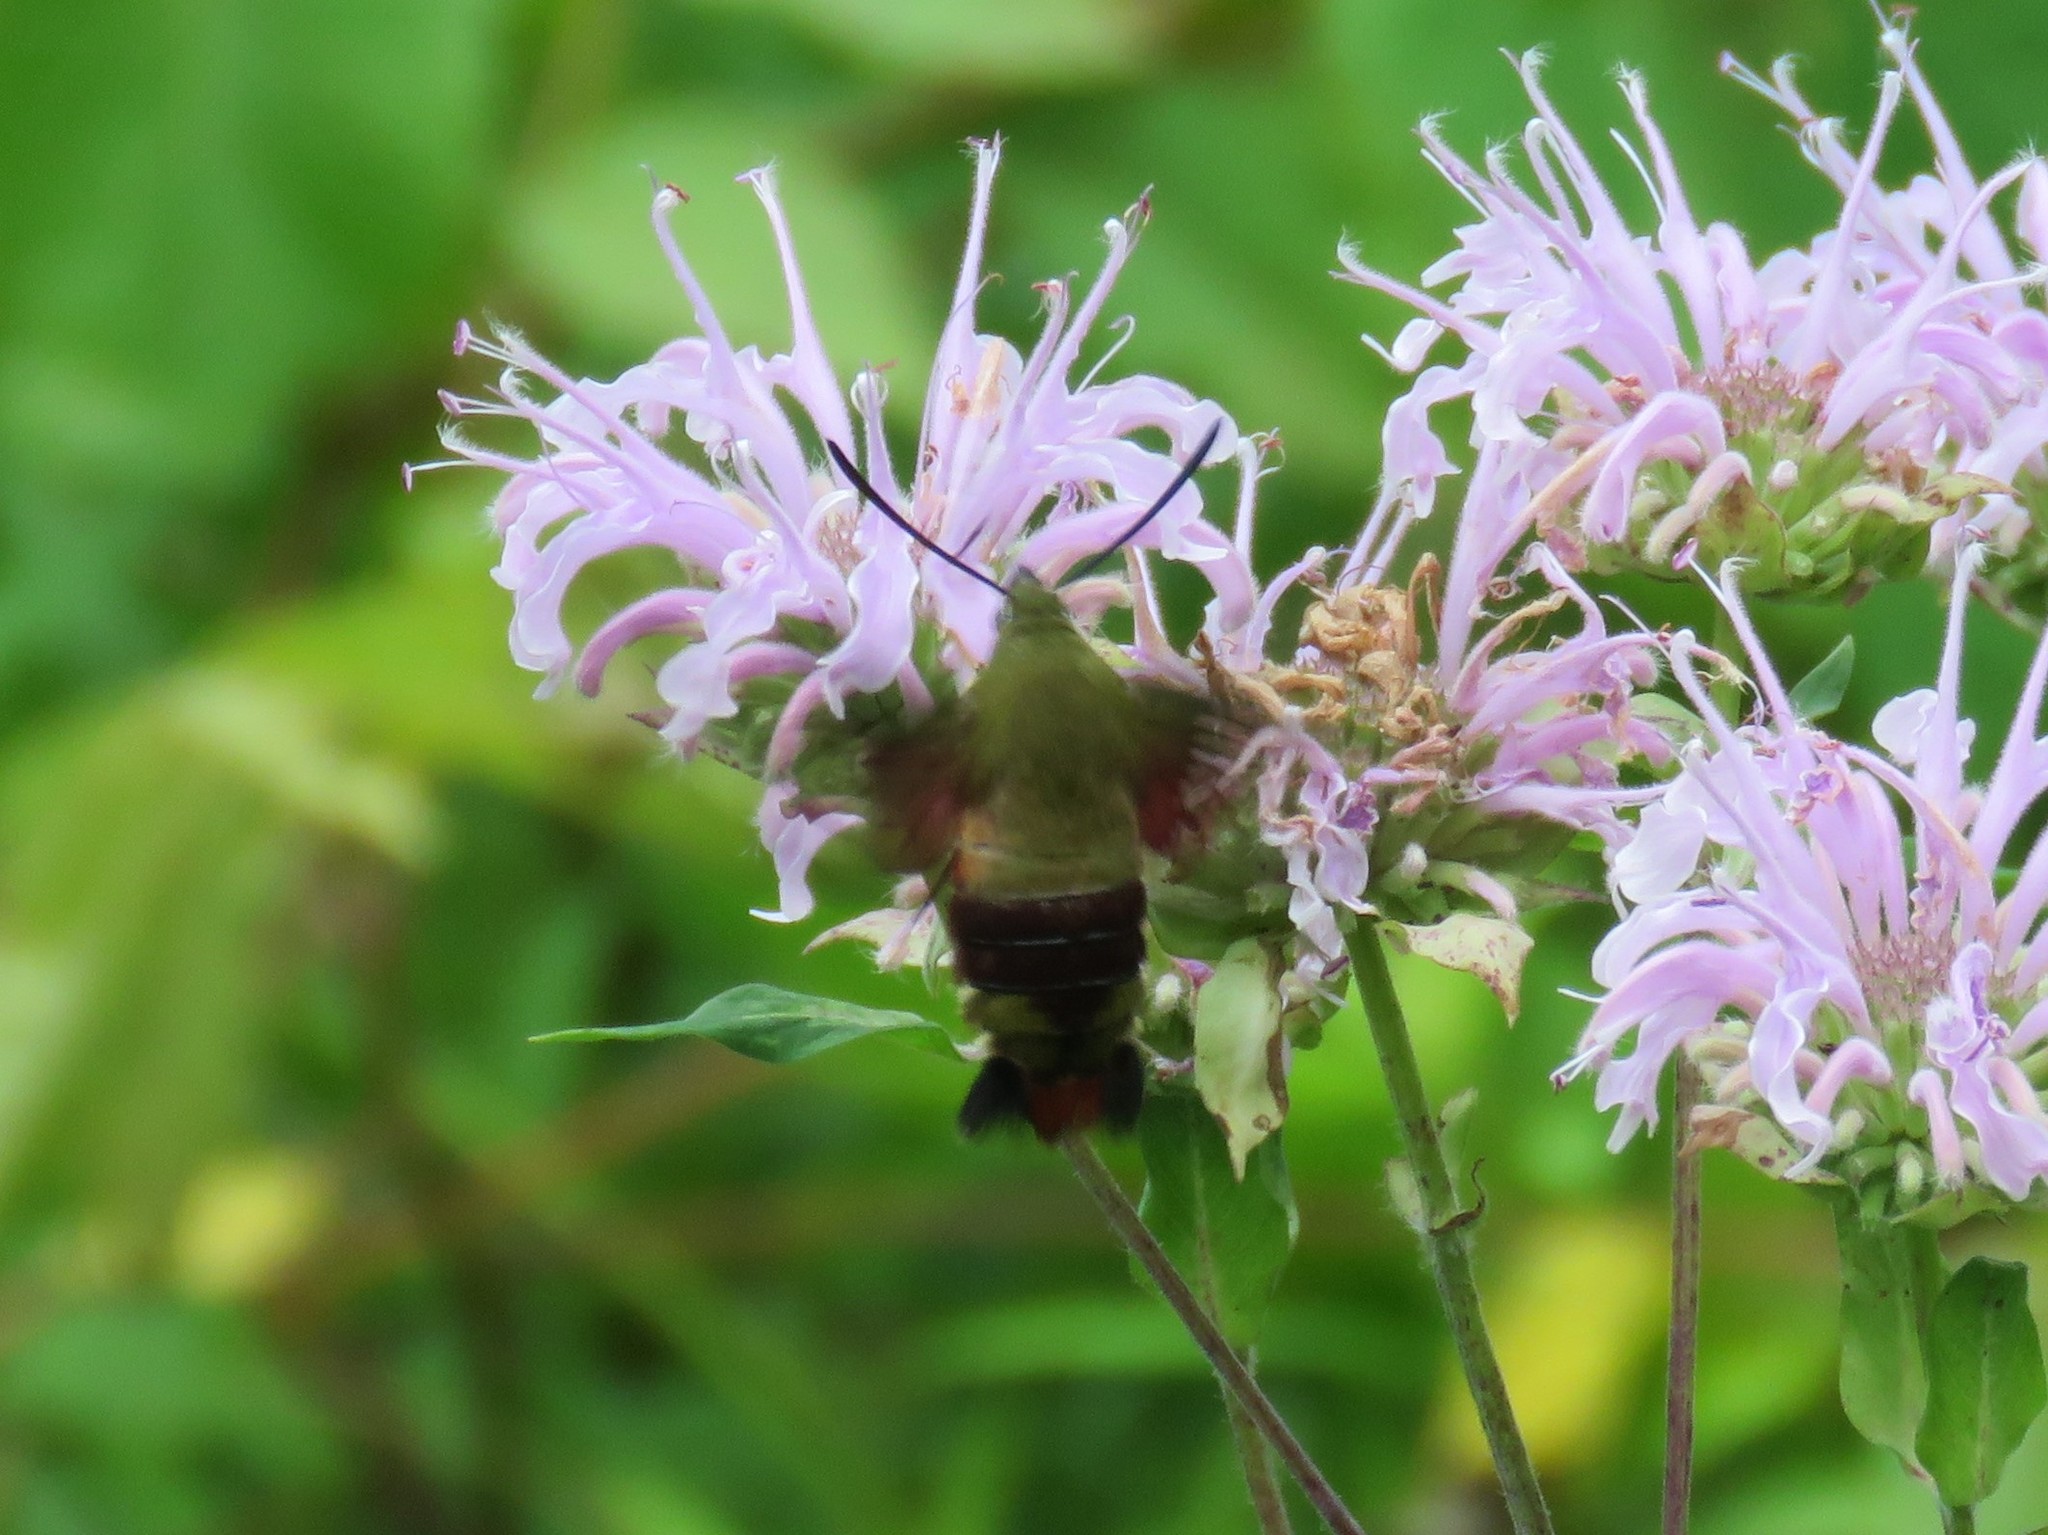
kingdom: Animalia
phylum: Arthropoda
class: Insecta
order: Lepidoptera
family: Sphingidae
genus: Hemaris
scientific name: Hemaris thysbe
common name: Common clear-wing
